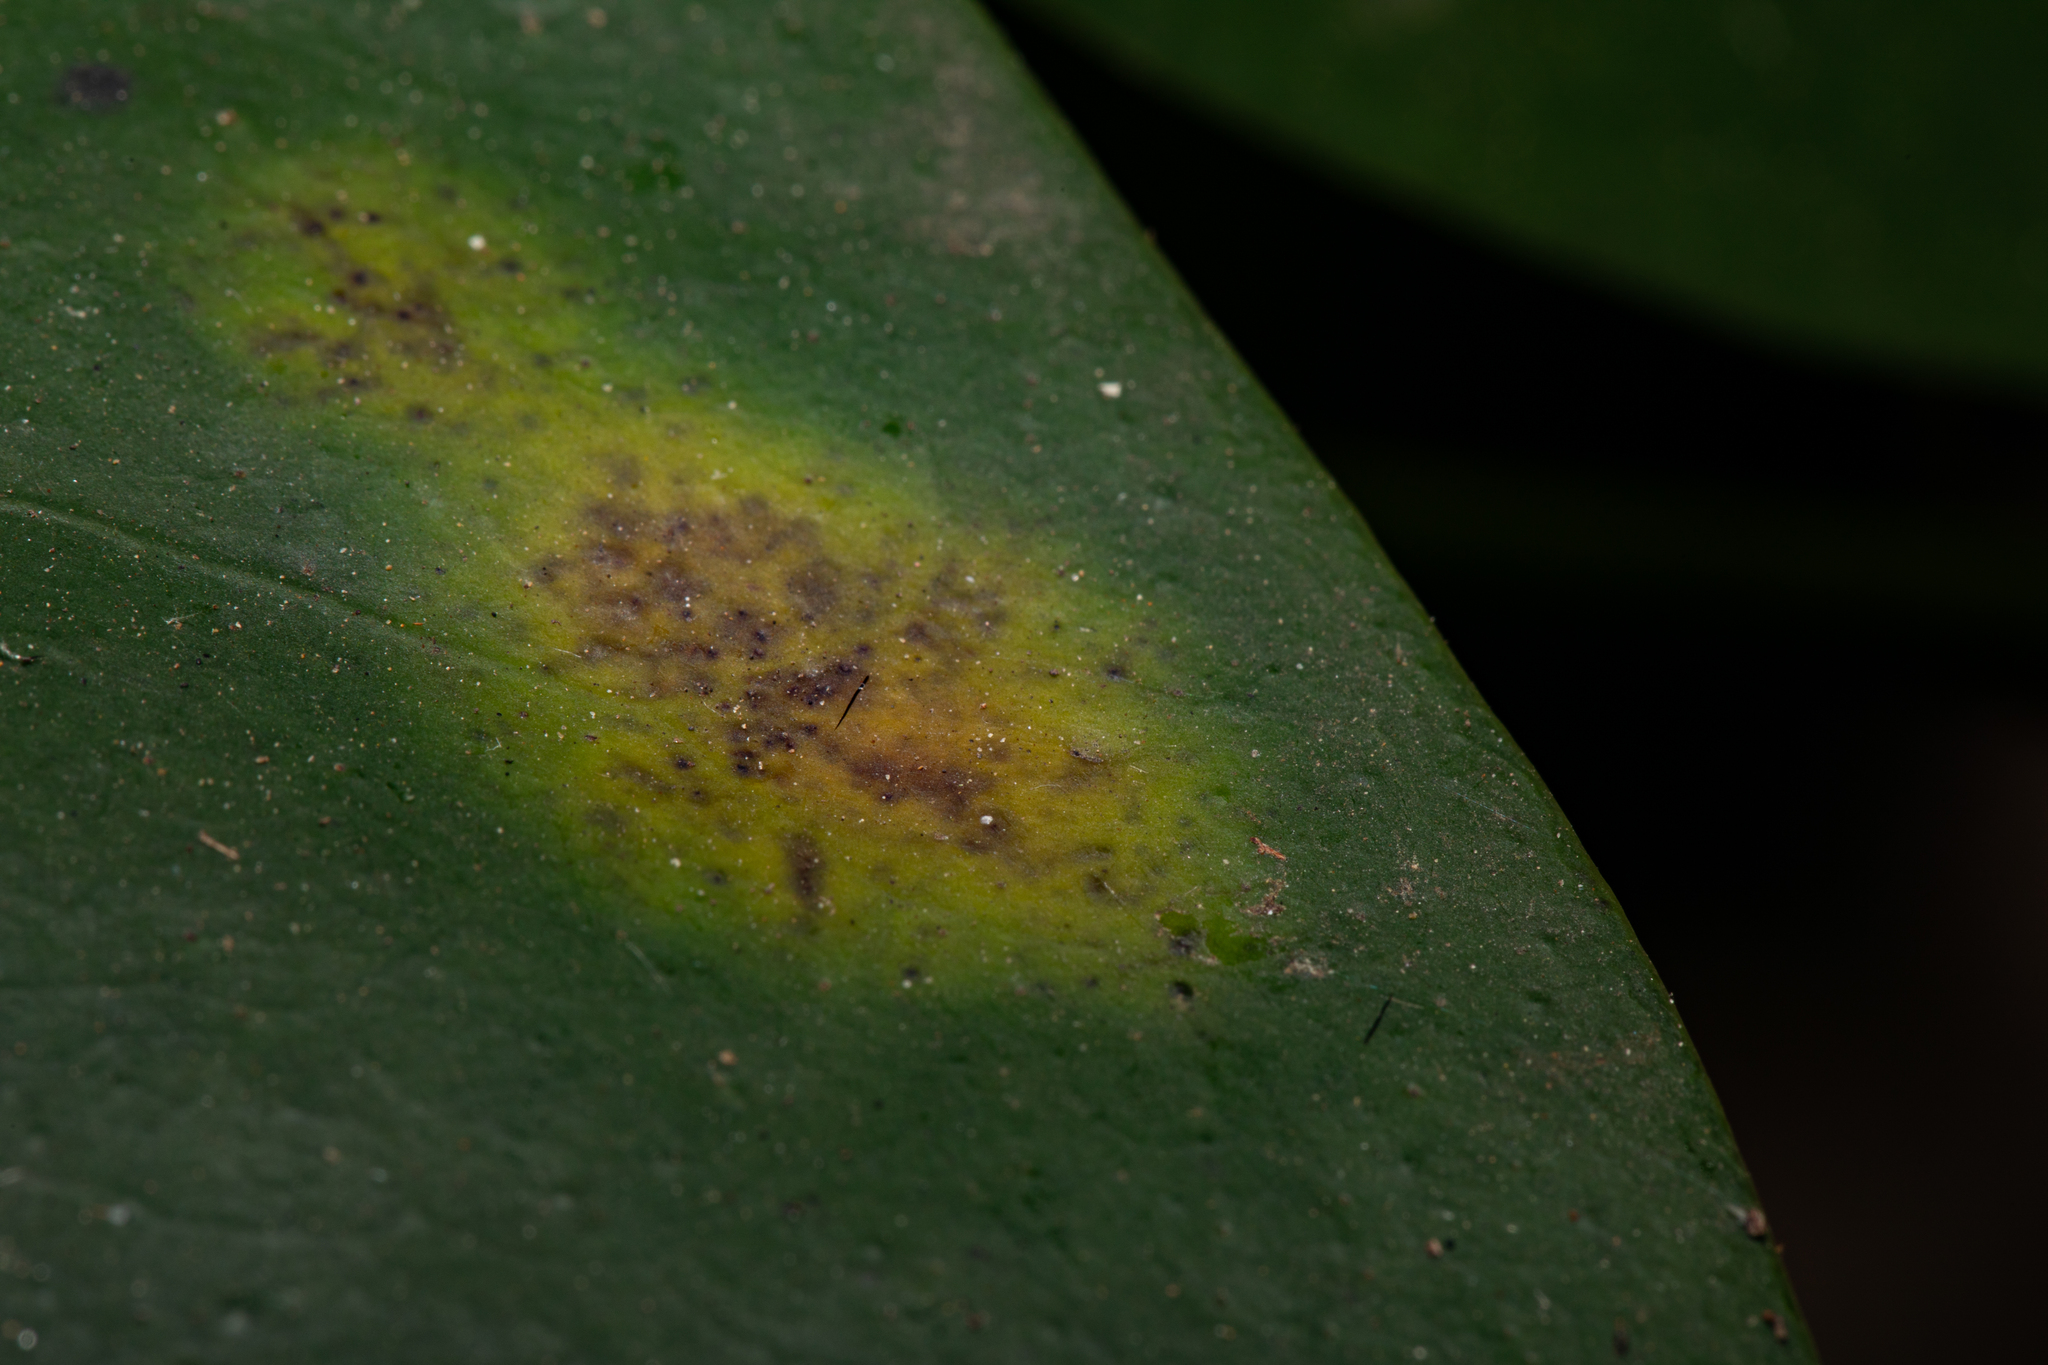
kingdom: Plantae
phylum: Chlorophyta
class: Ulvophyceae
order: Trentepohliales
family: Trentepohliaceae
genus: Cephaleuros
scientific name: Cephaleuros
